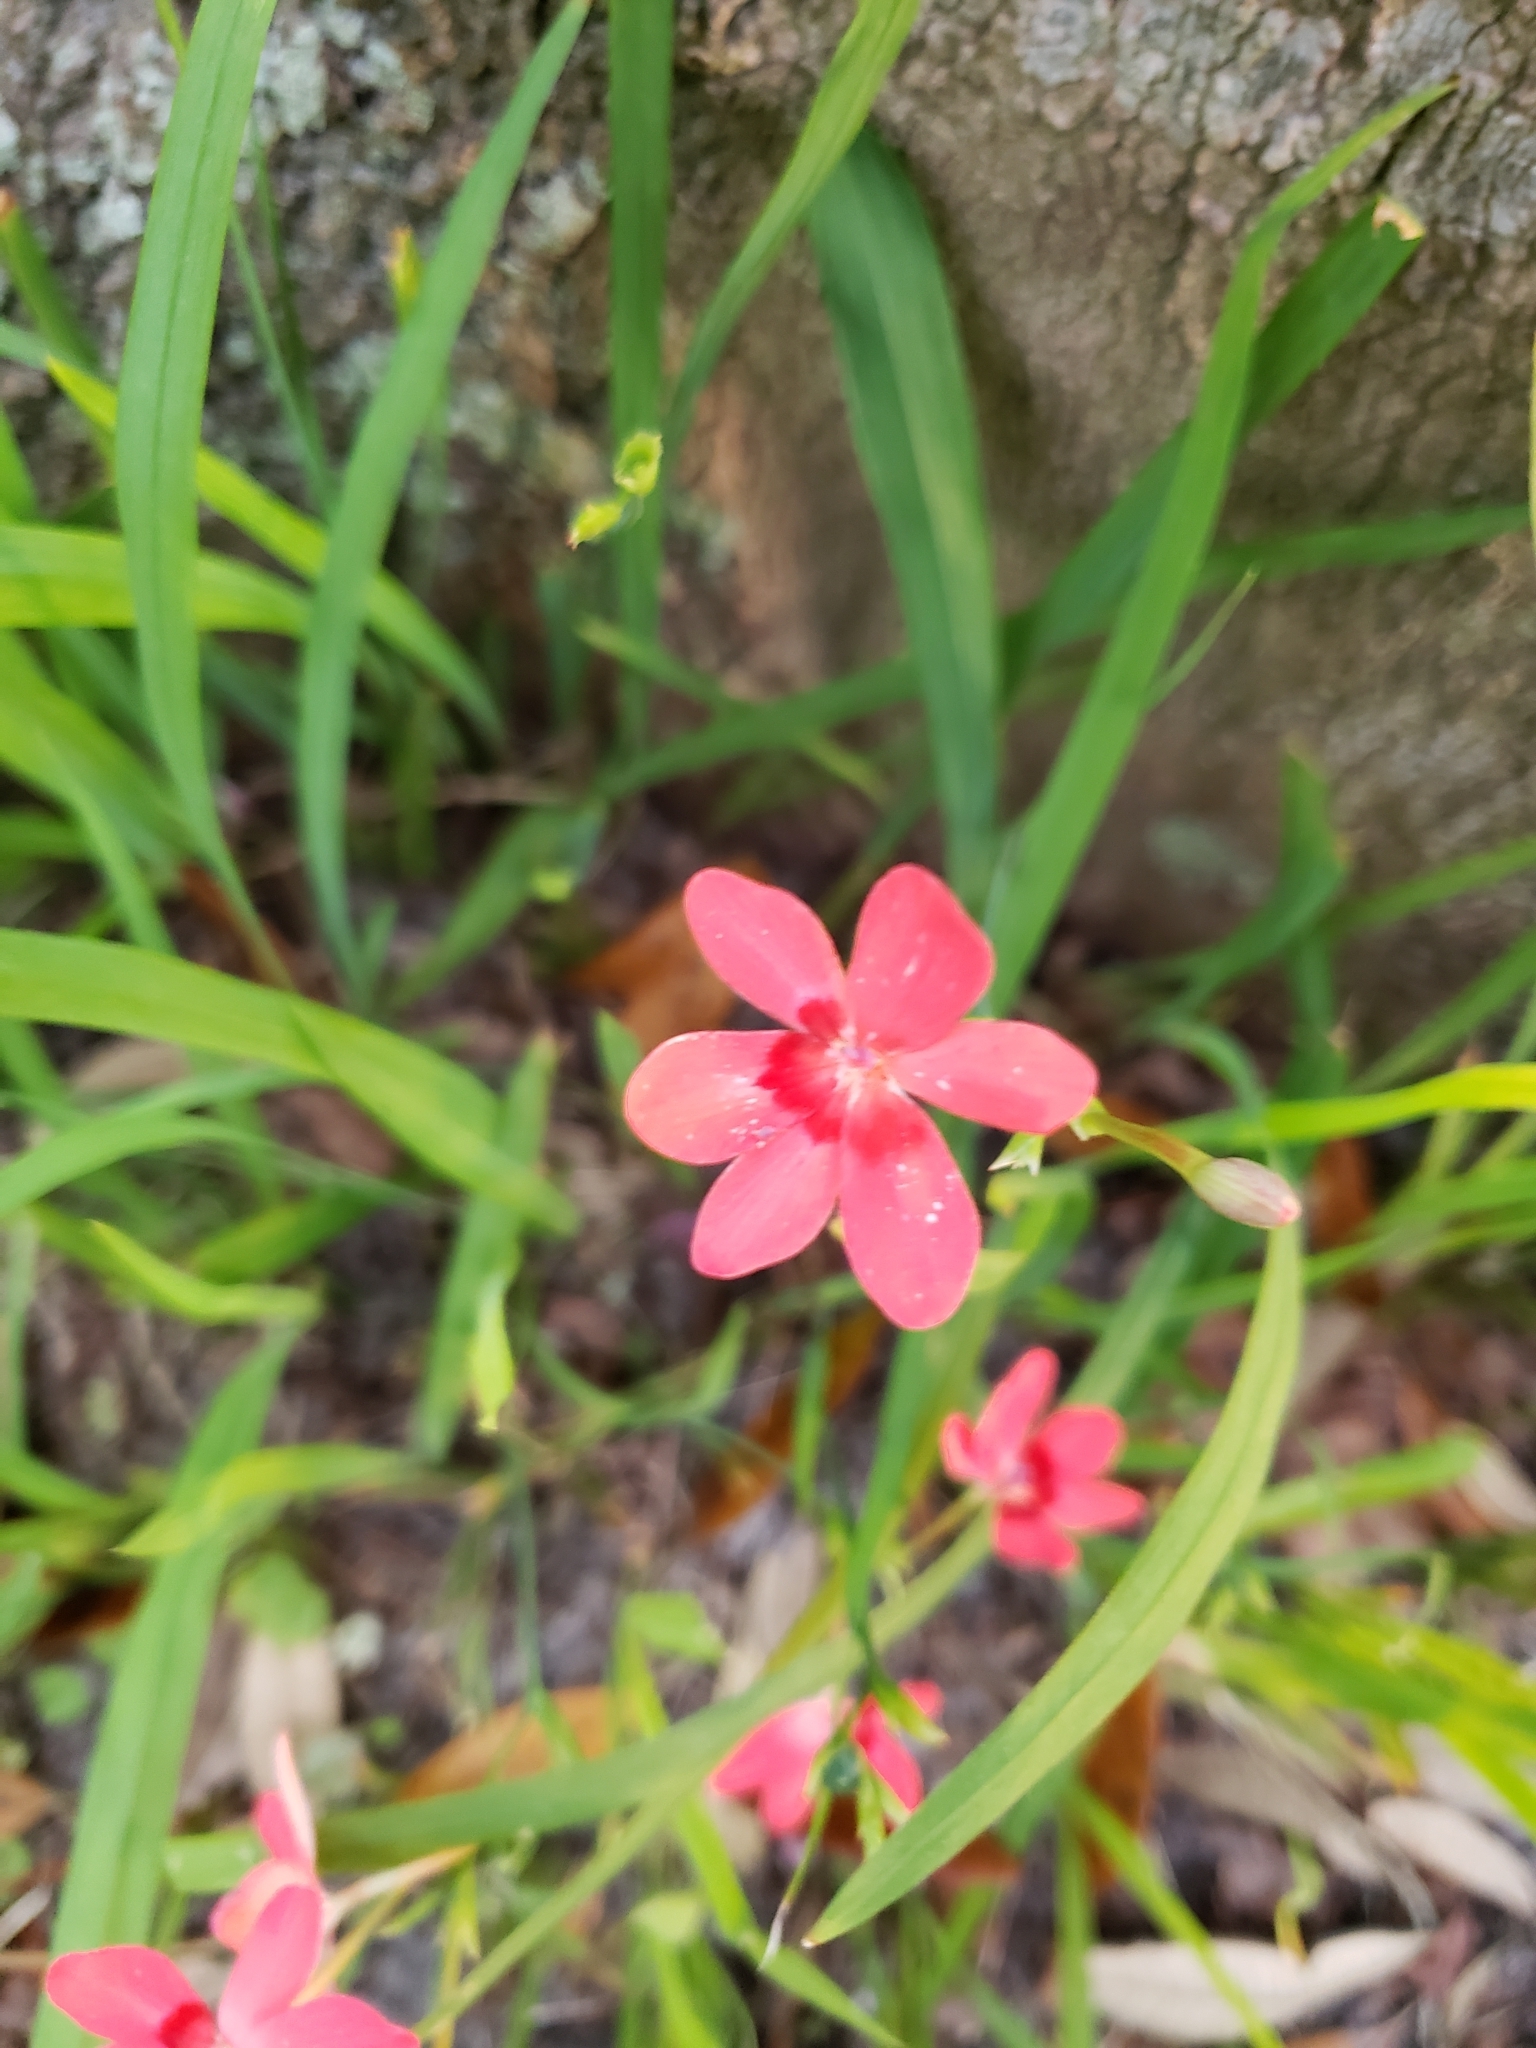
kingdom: Plantae
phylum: Tracheophyta
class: Liliopsida
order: Asparagales
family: Iridaceae
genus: Freesia
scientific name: Freesia laxa
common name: False freesia
